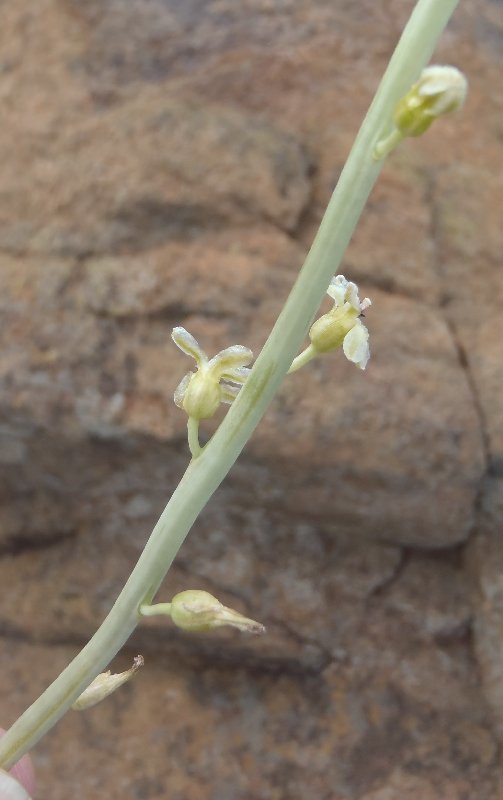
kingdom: Plantae
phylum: Tracheophyta
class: Liliopsida
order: Asparagales
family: Asparagaceae
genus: Drimia
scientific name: Drimia multisetosa
